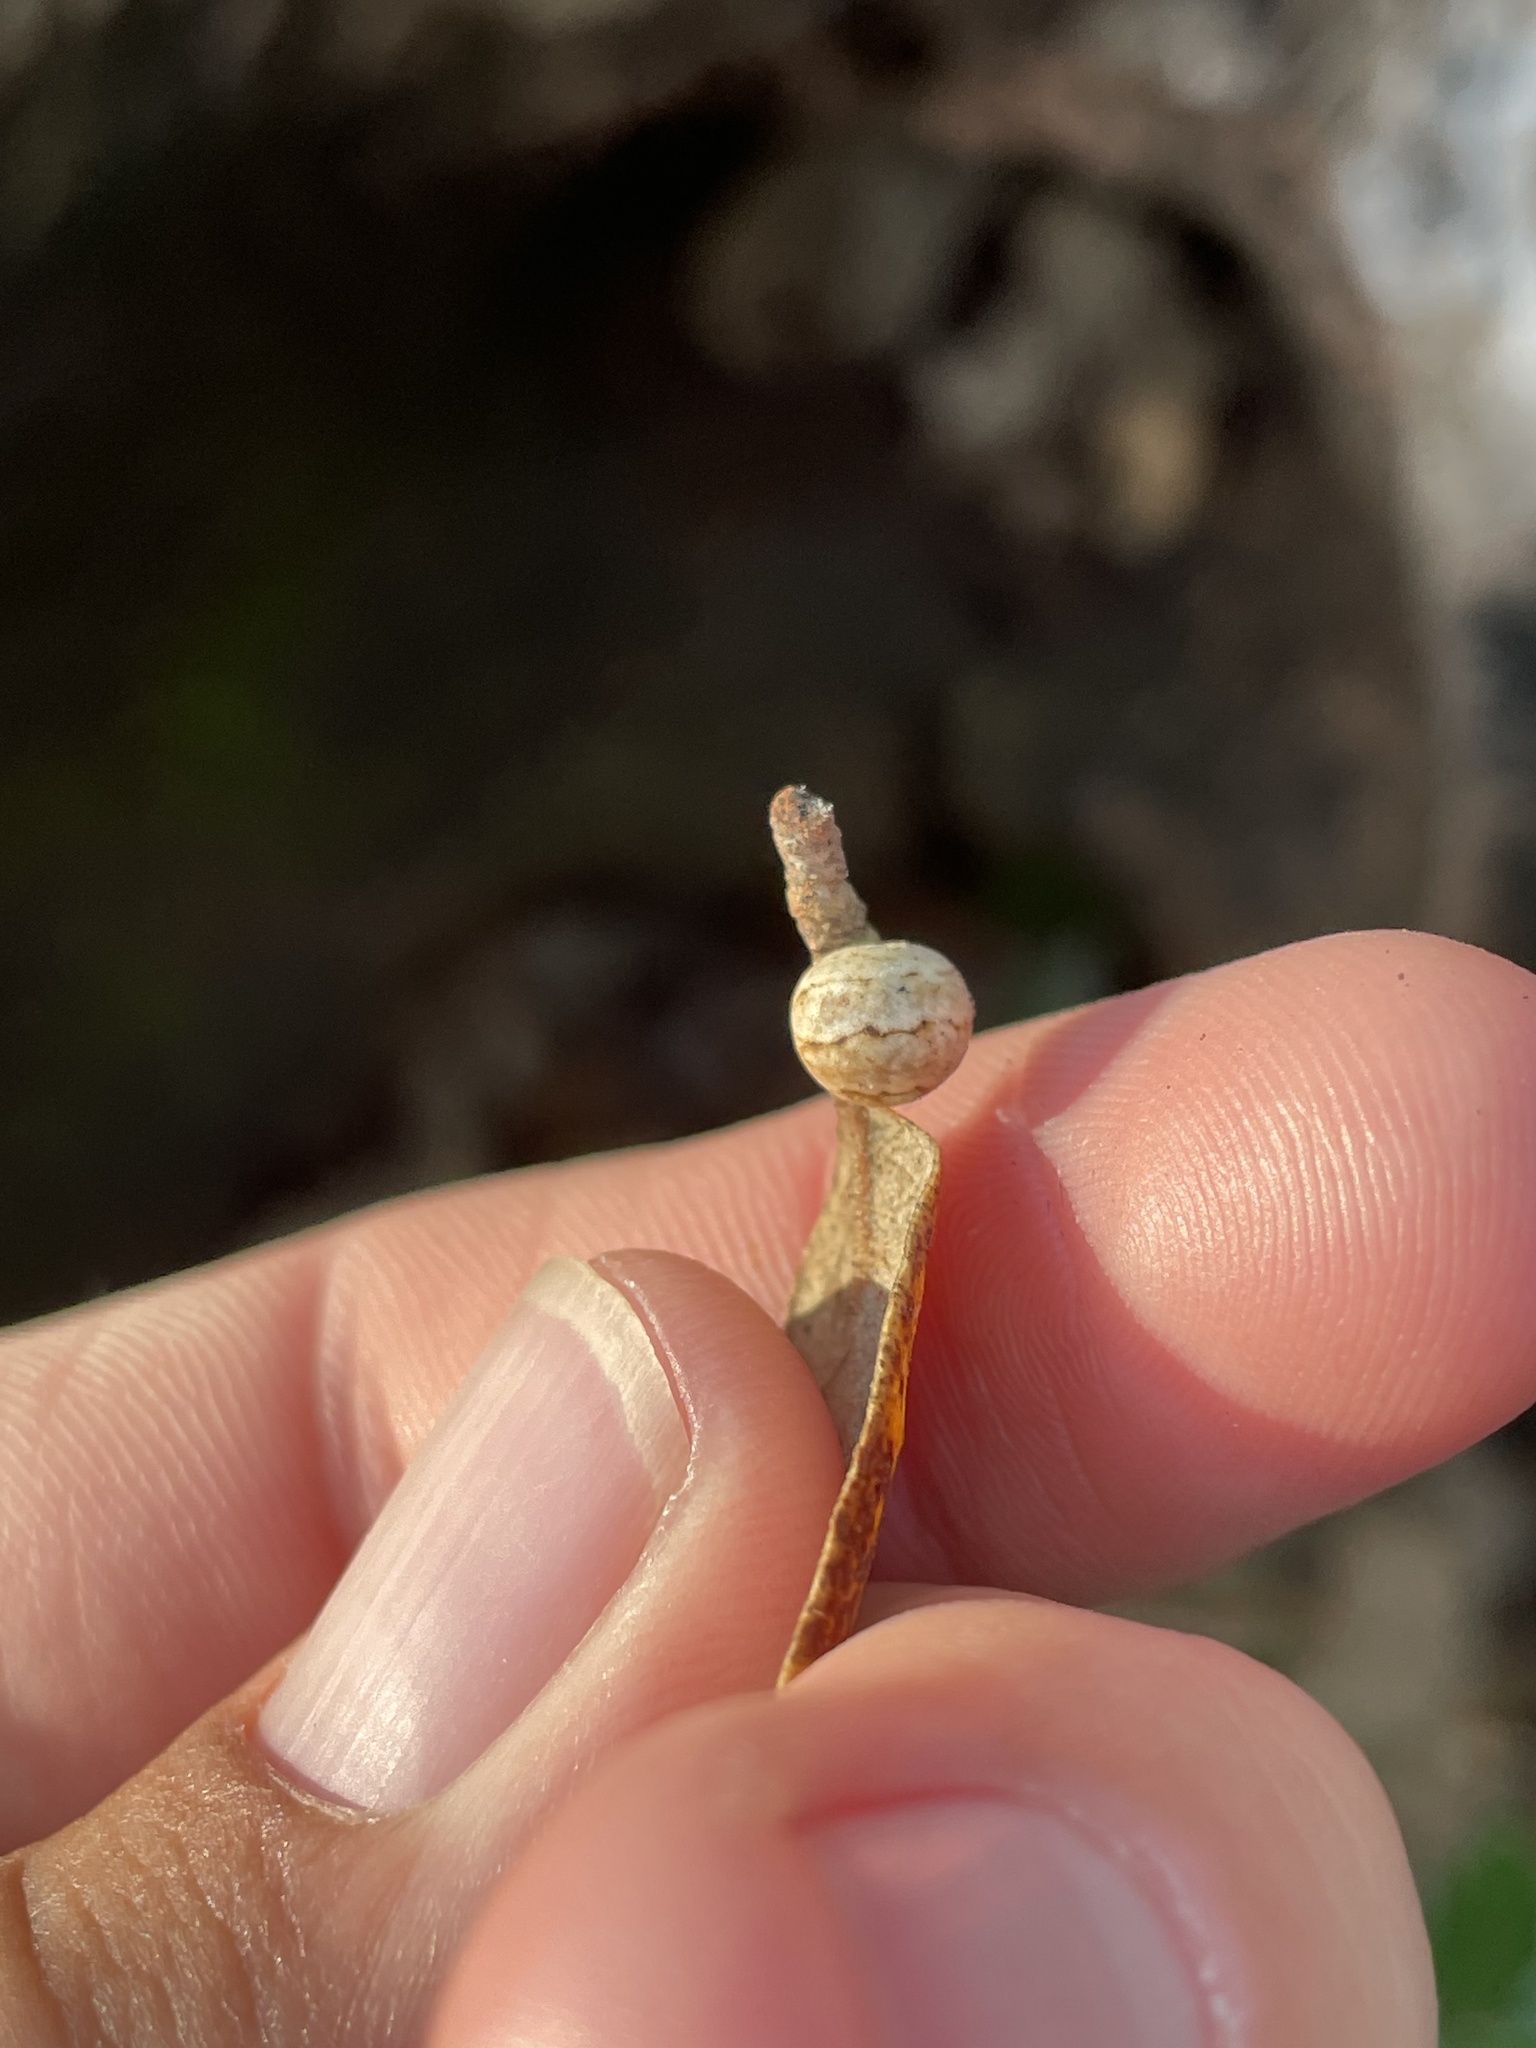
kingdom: Animalia
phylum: Arthropoda
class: Insecta
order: Hemiptera
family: Kermesidae
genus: Allokermes
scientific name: Allokermes cueroensis
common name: Live oak kermes
